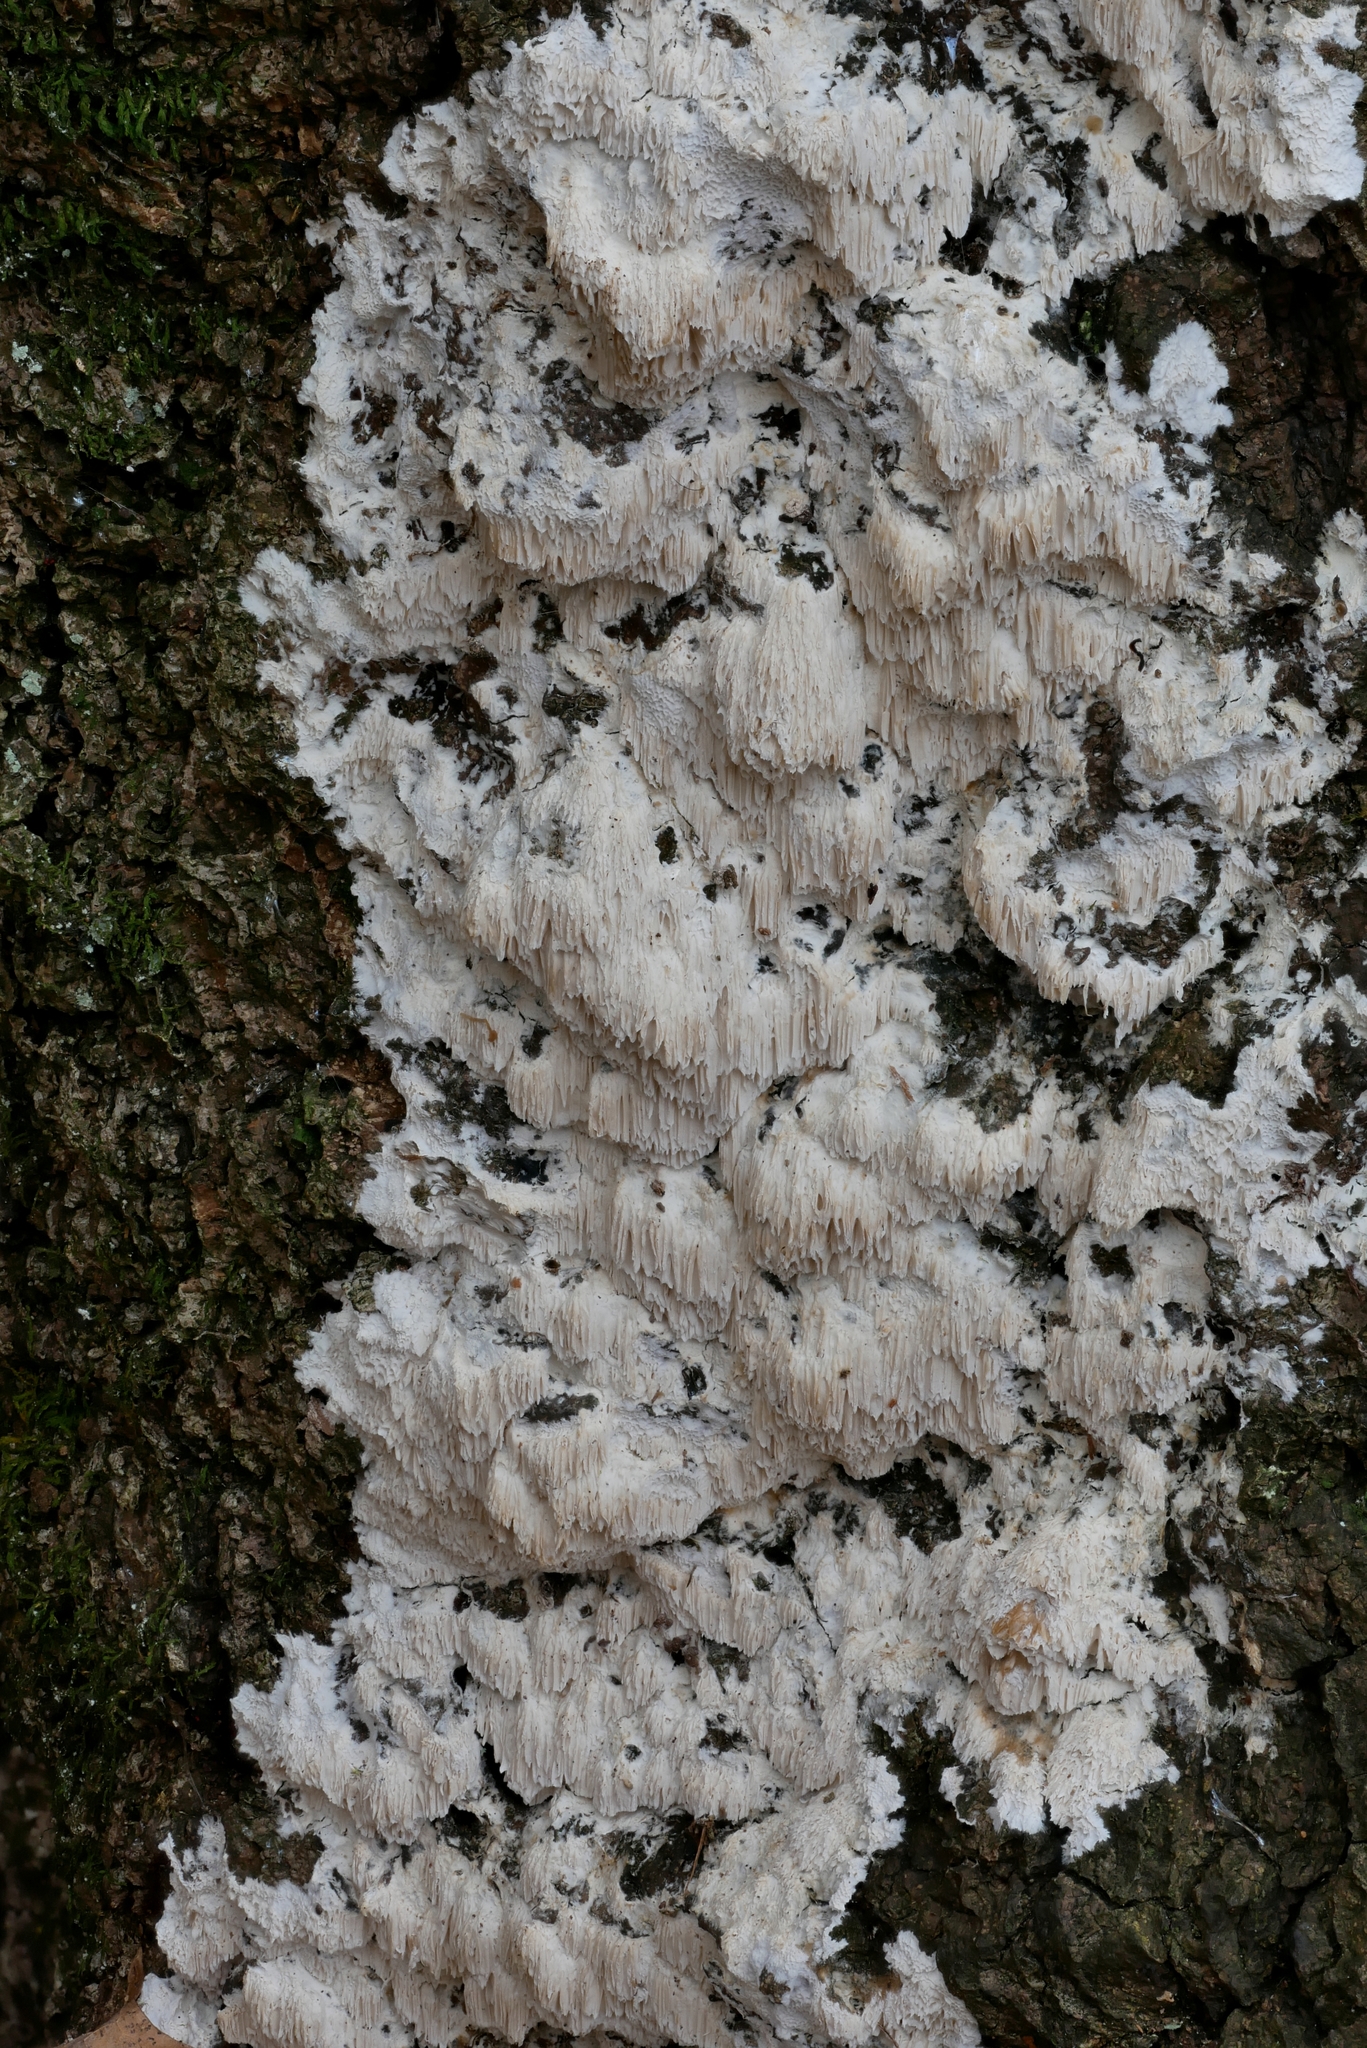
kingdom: Fungi
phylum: Basidiomycota
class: Agaricomycetes
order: Polyporales
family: Irpicaceae
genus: Irpex
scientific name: Irpex latemarginatus
